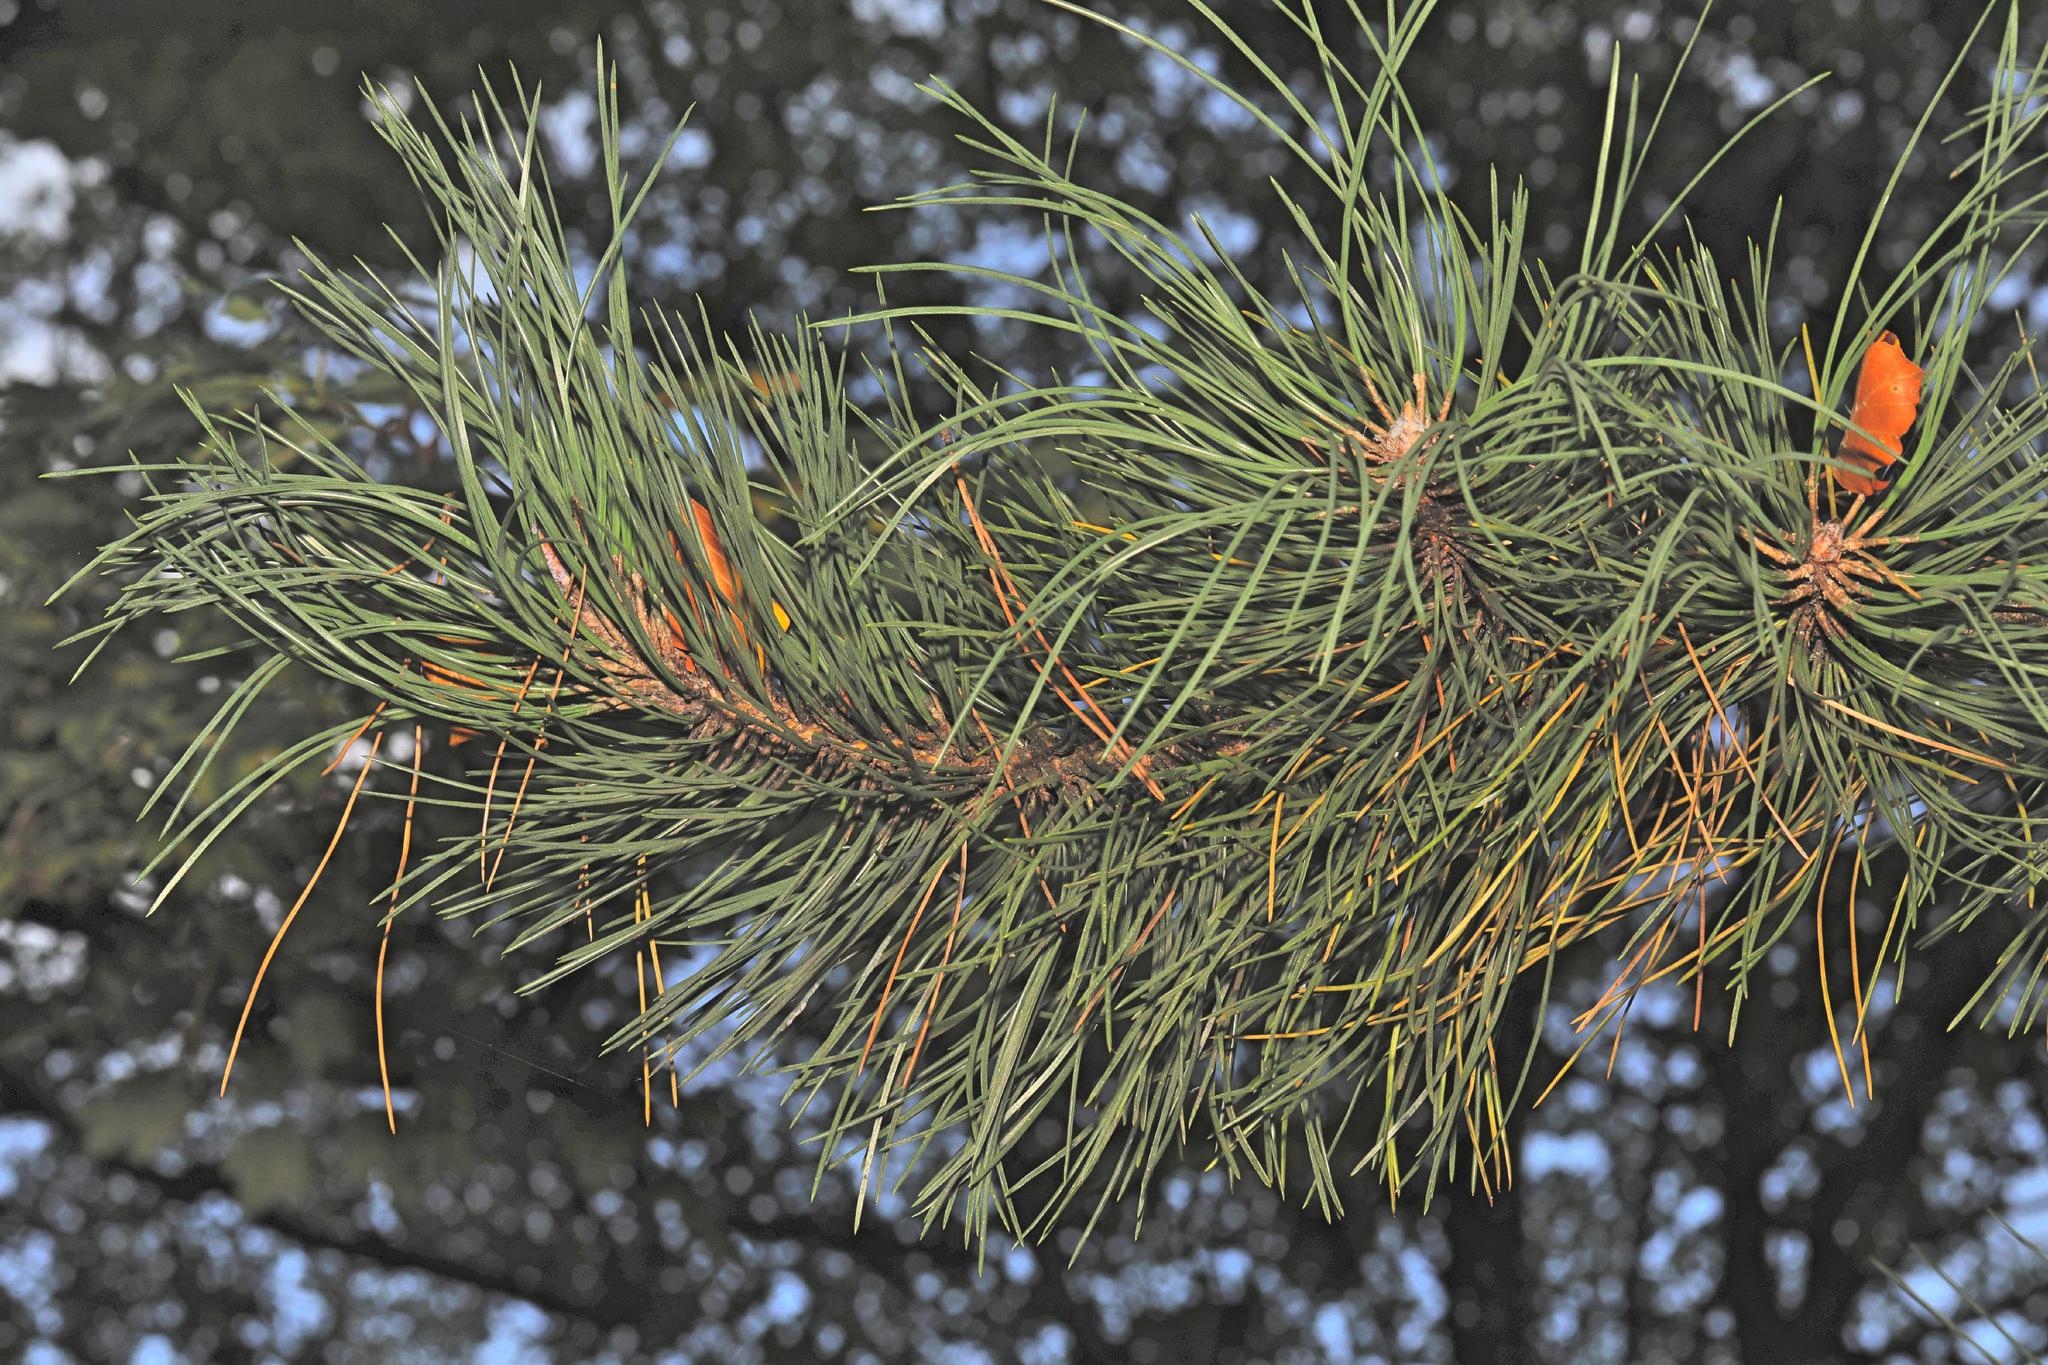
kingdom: Plantae
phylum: Tracheophyta
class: Pinopsida
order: Pinales
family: Pinaceae
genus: Pinus
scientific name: Pinus nigra
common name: Austrian pine
